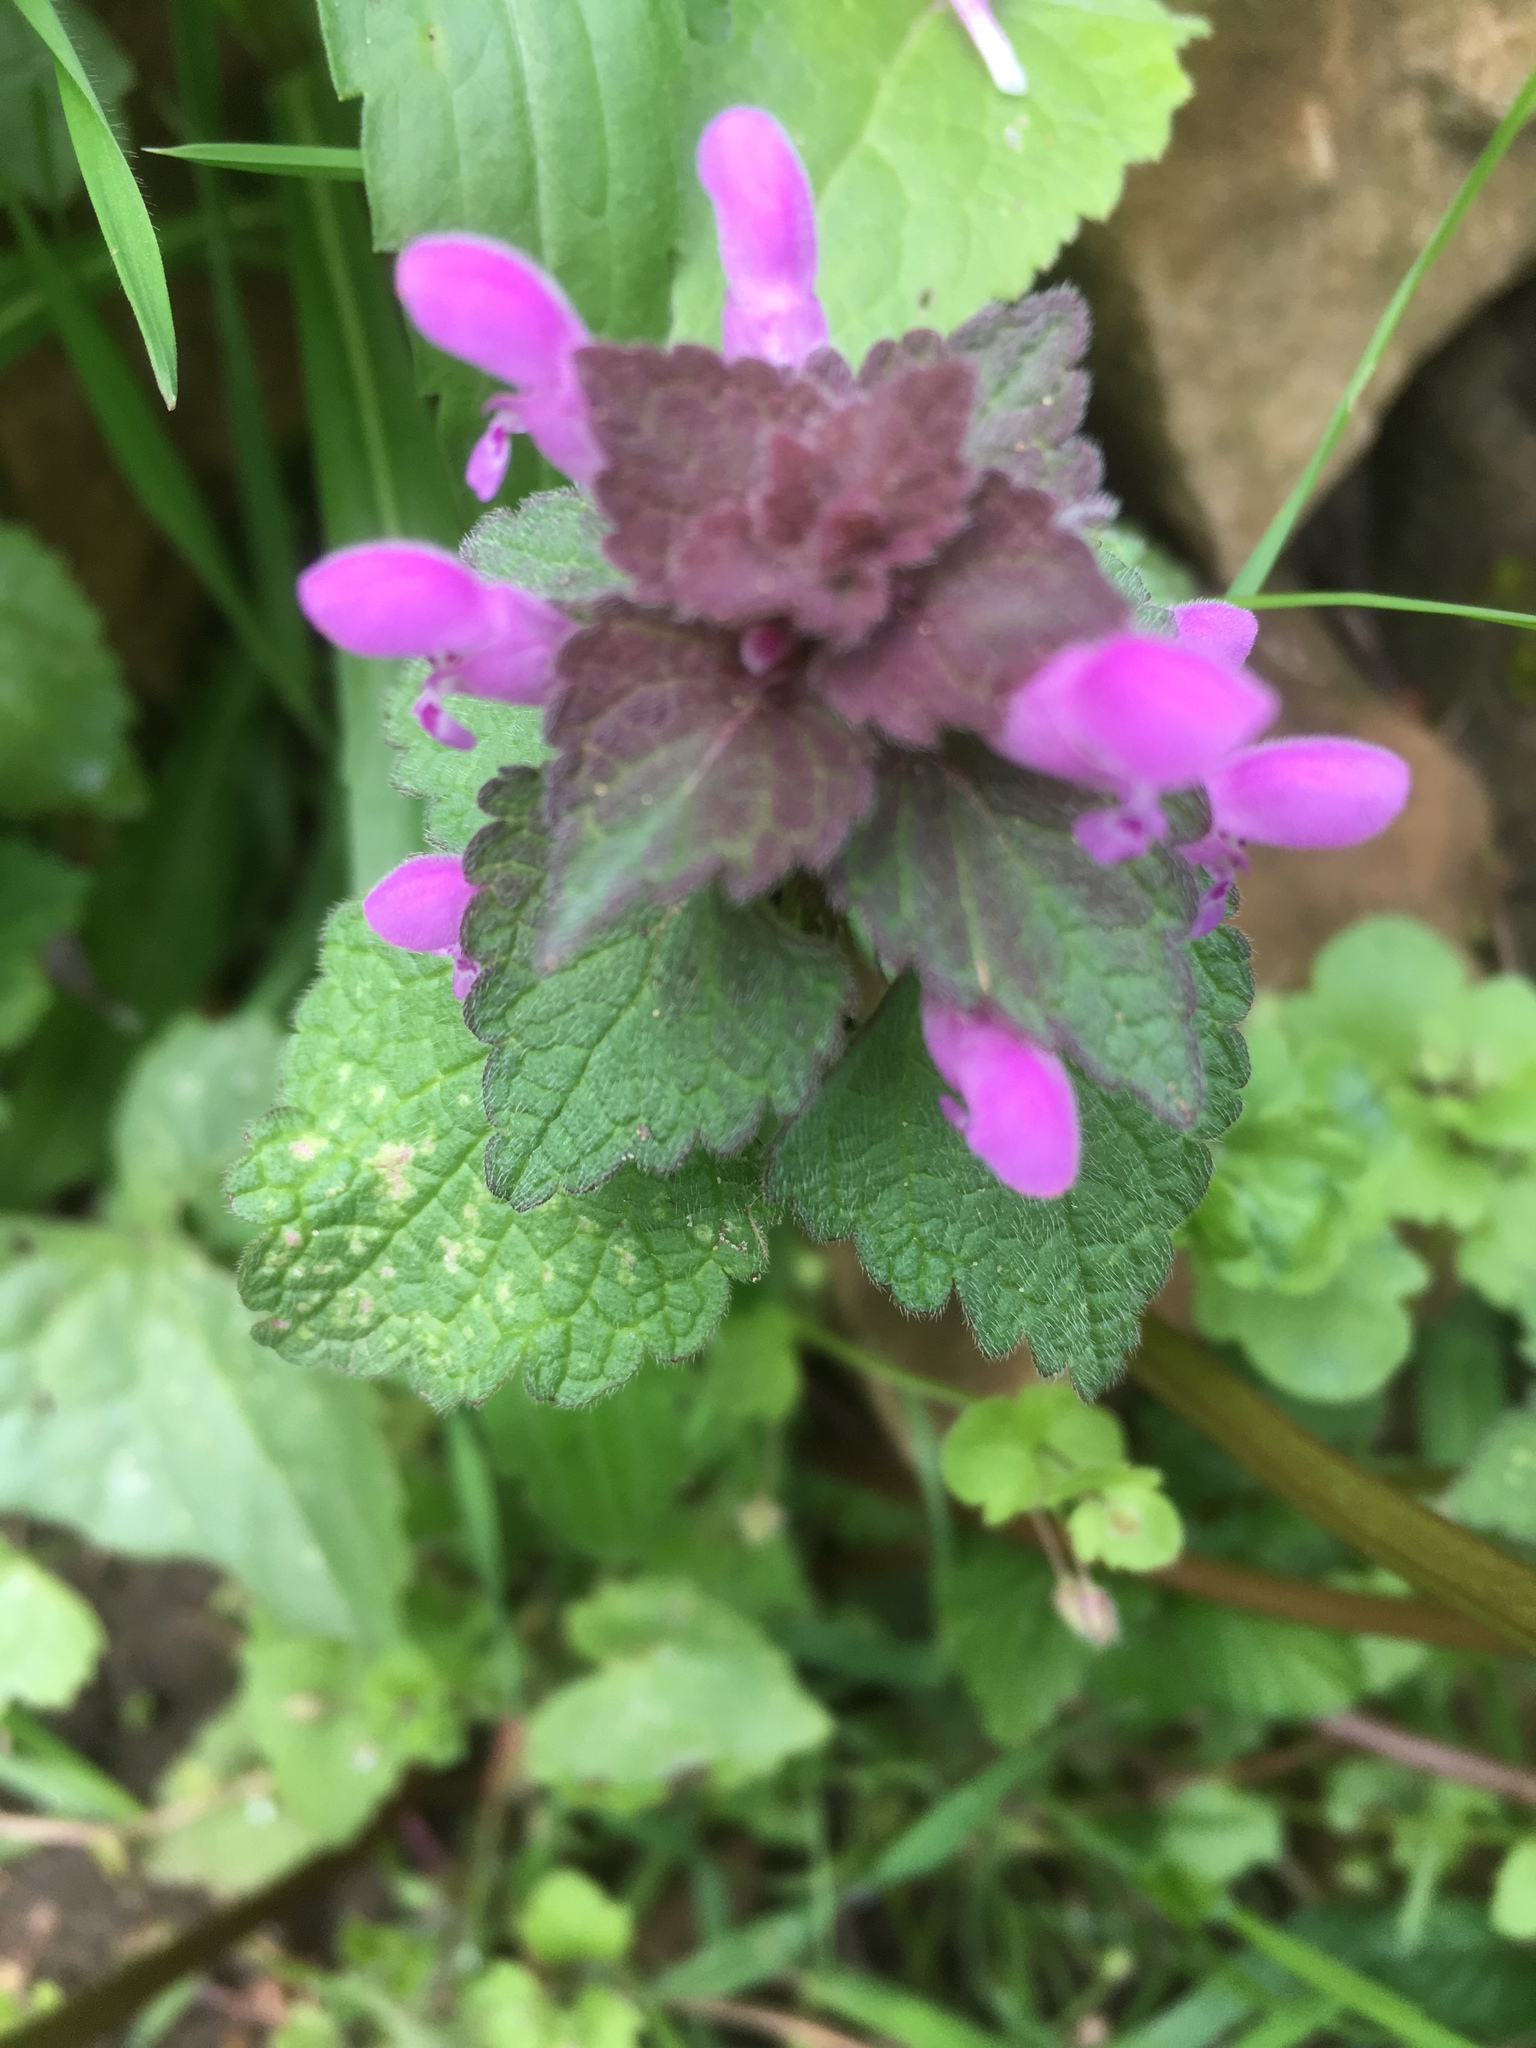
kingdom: Plantae
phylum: Tracheophyta
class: Magnoliopsida
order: Lamiales
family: Lamiaceae
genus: Lamium
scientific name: Lamium purpureum
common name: Red dead-nettle
